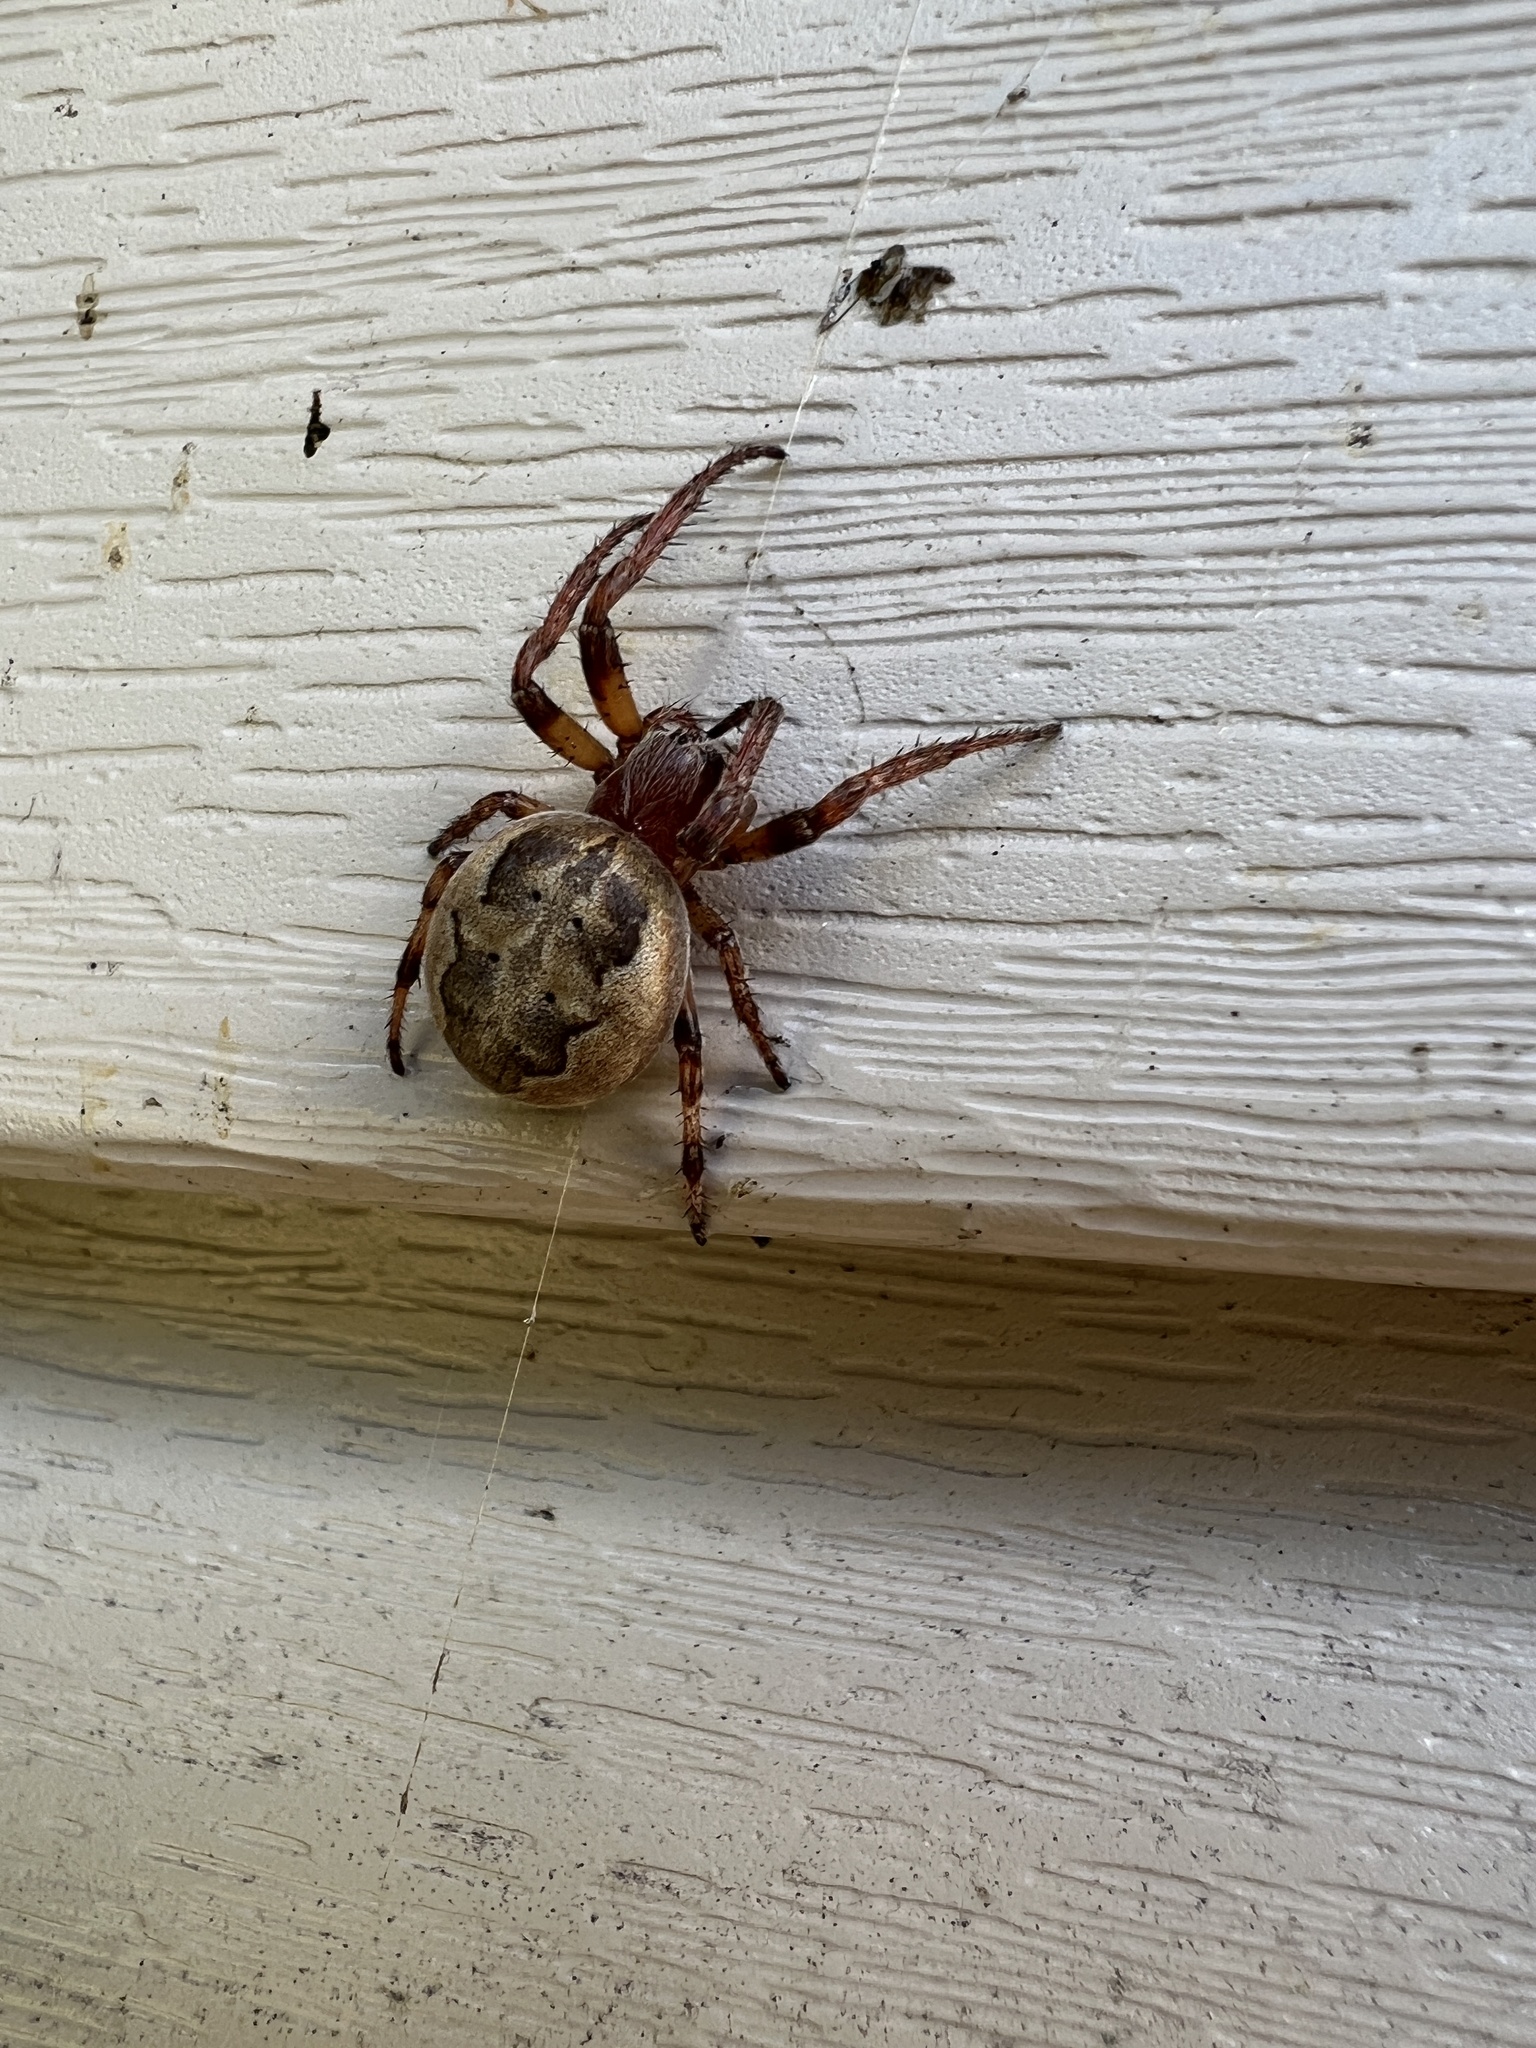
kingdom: Animalia
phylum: Arthropoda
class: Arachnida
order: Araneae
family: Araneidae
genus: Larinioides
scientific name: Larinioides cornutus
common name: Furrow orbweaver
